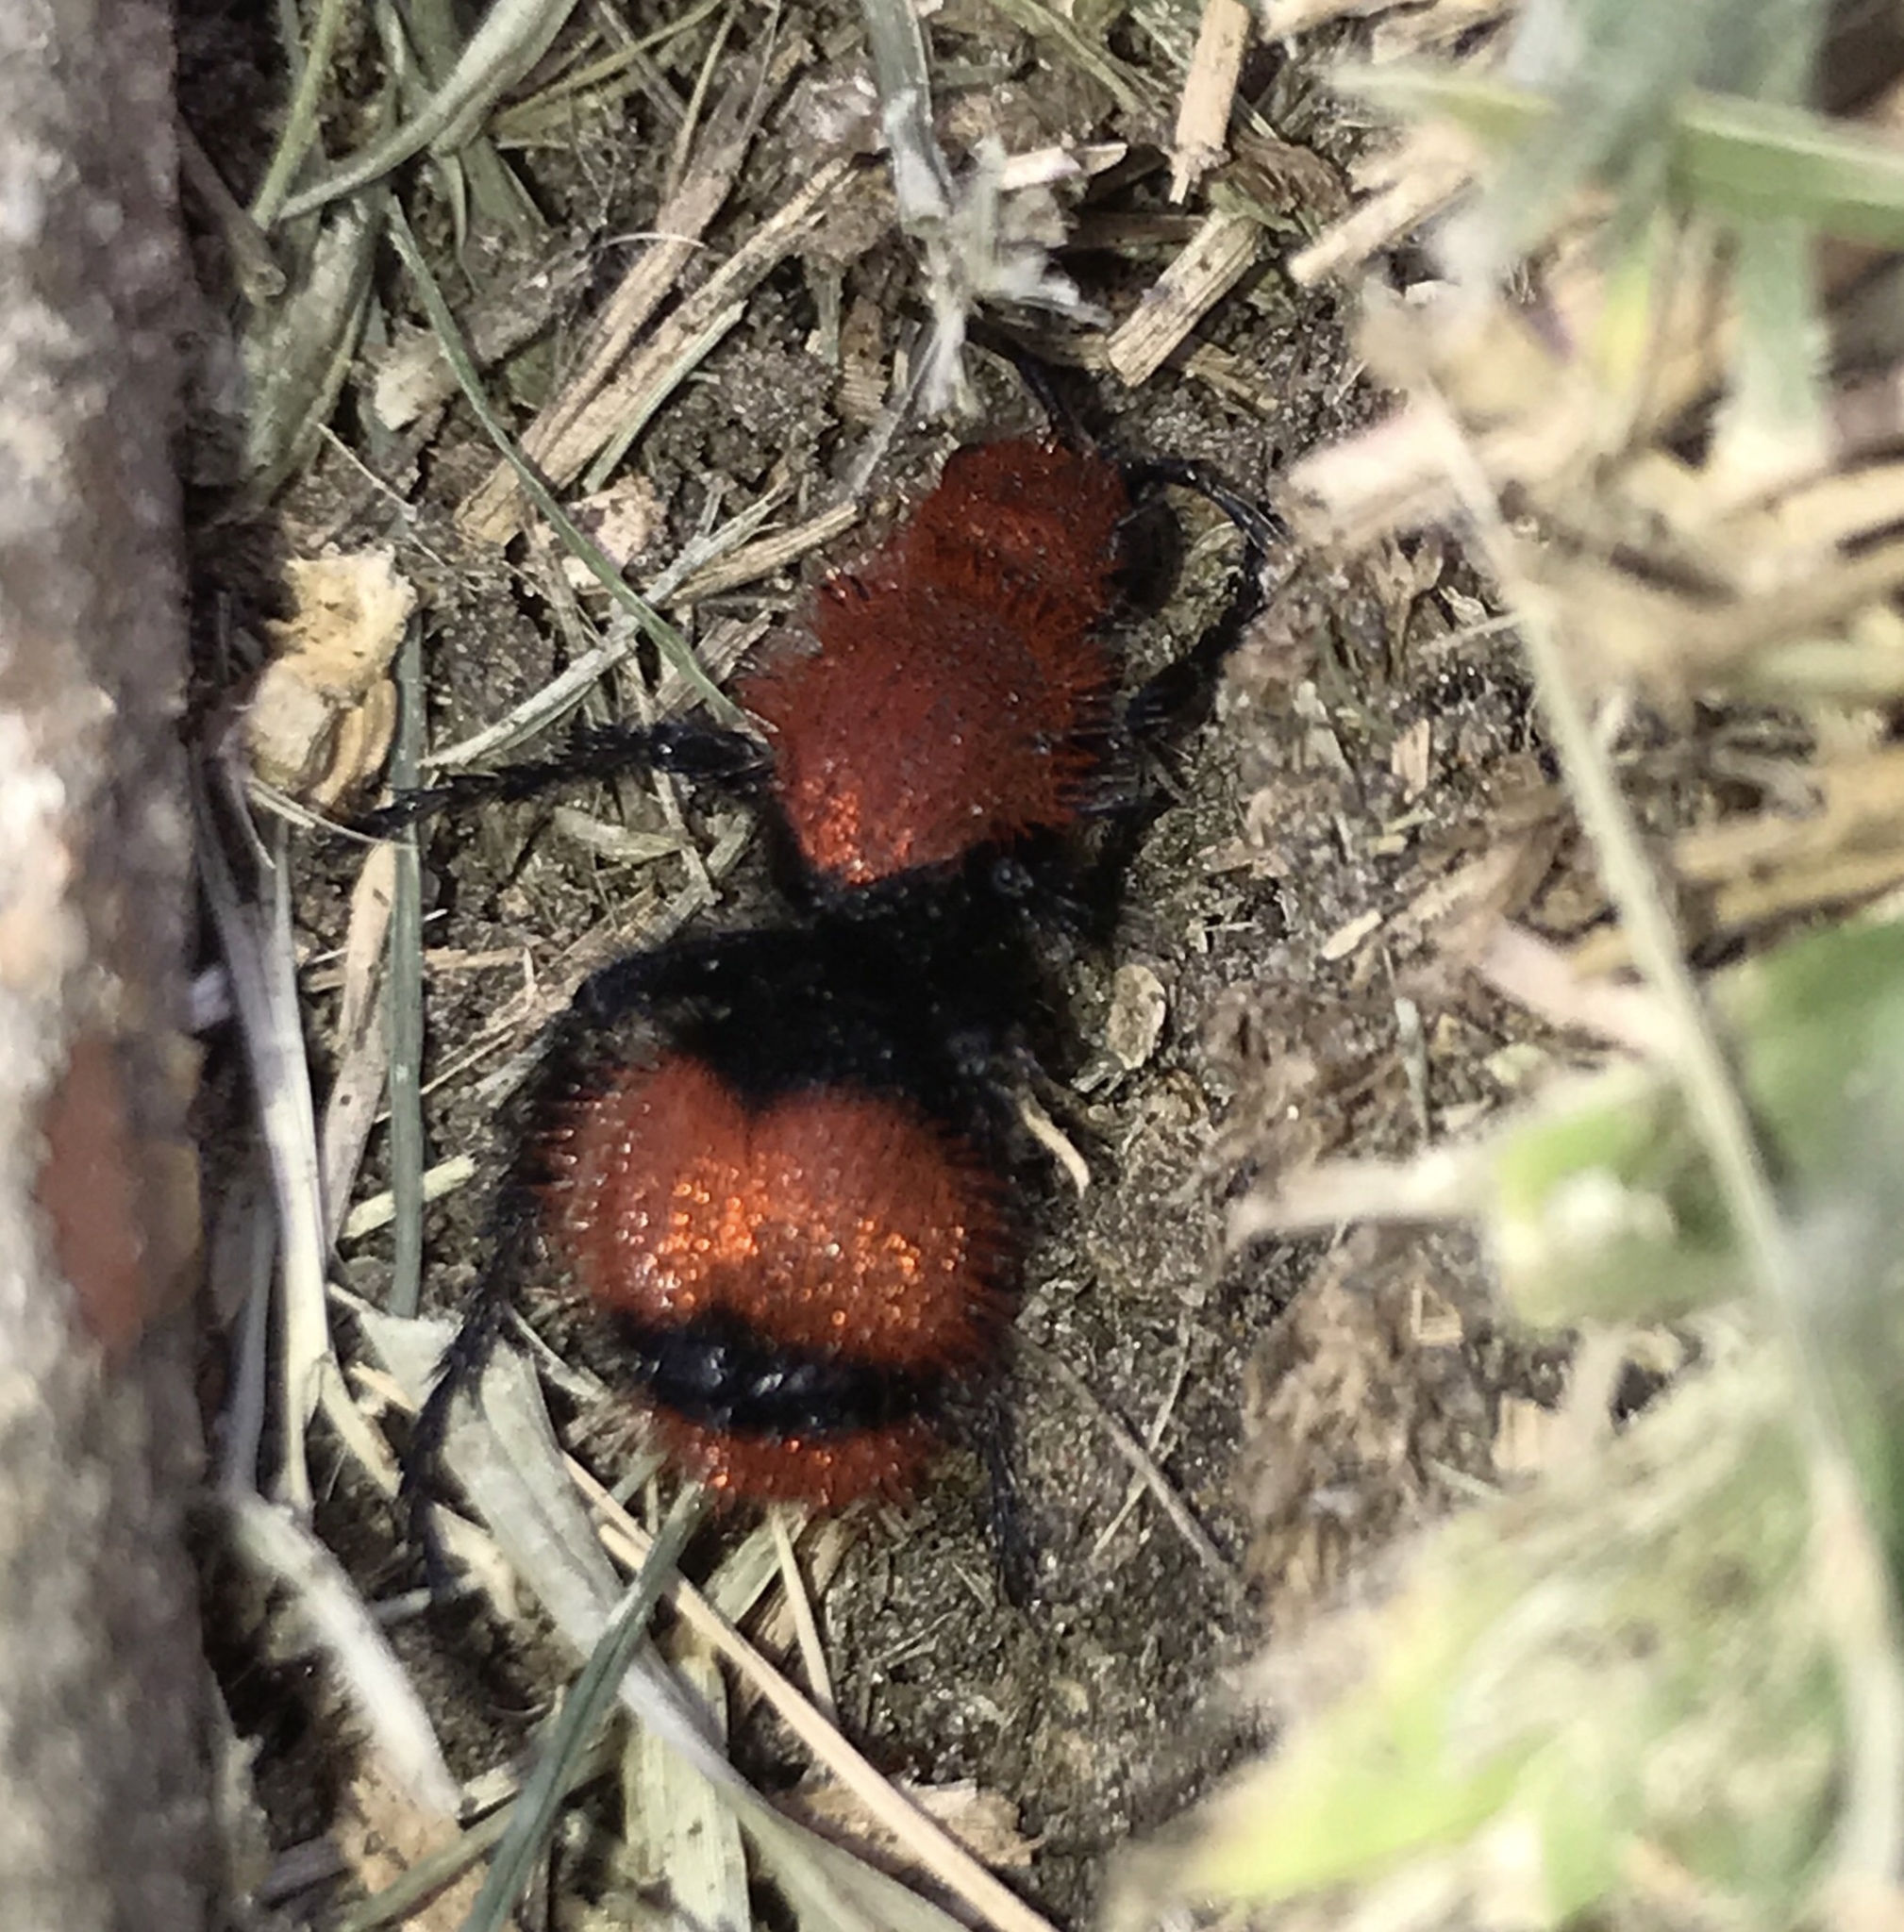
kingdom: Animalia
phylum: Arthropoda
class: Insecta
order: Hymenoptera
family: Mutillidae
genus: Dasymutilla
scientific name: Dasymutilla occidentalis
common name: Common eastern velvet ant
